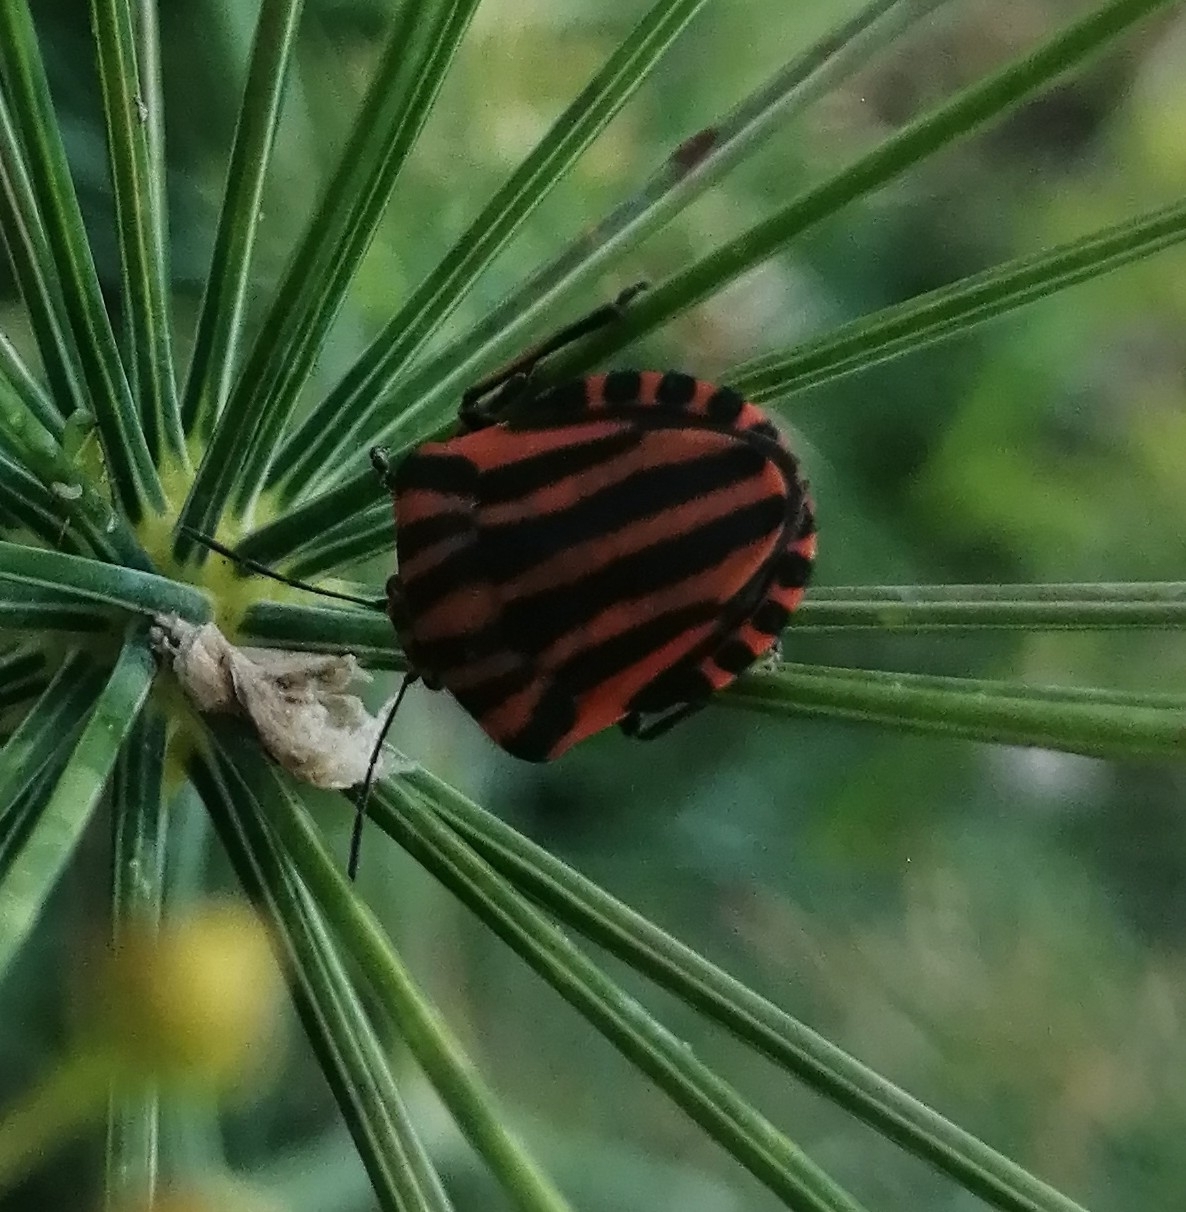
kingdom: Animalia
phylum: Arthropoda
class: Insecta
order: Hemiptera
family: Pentatomidae
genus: Graphosoma
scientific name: Graphosoma italicum
